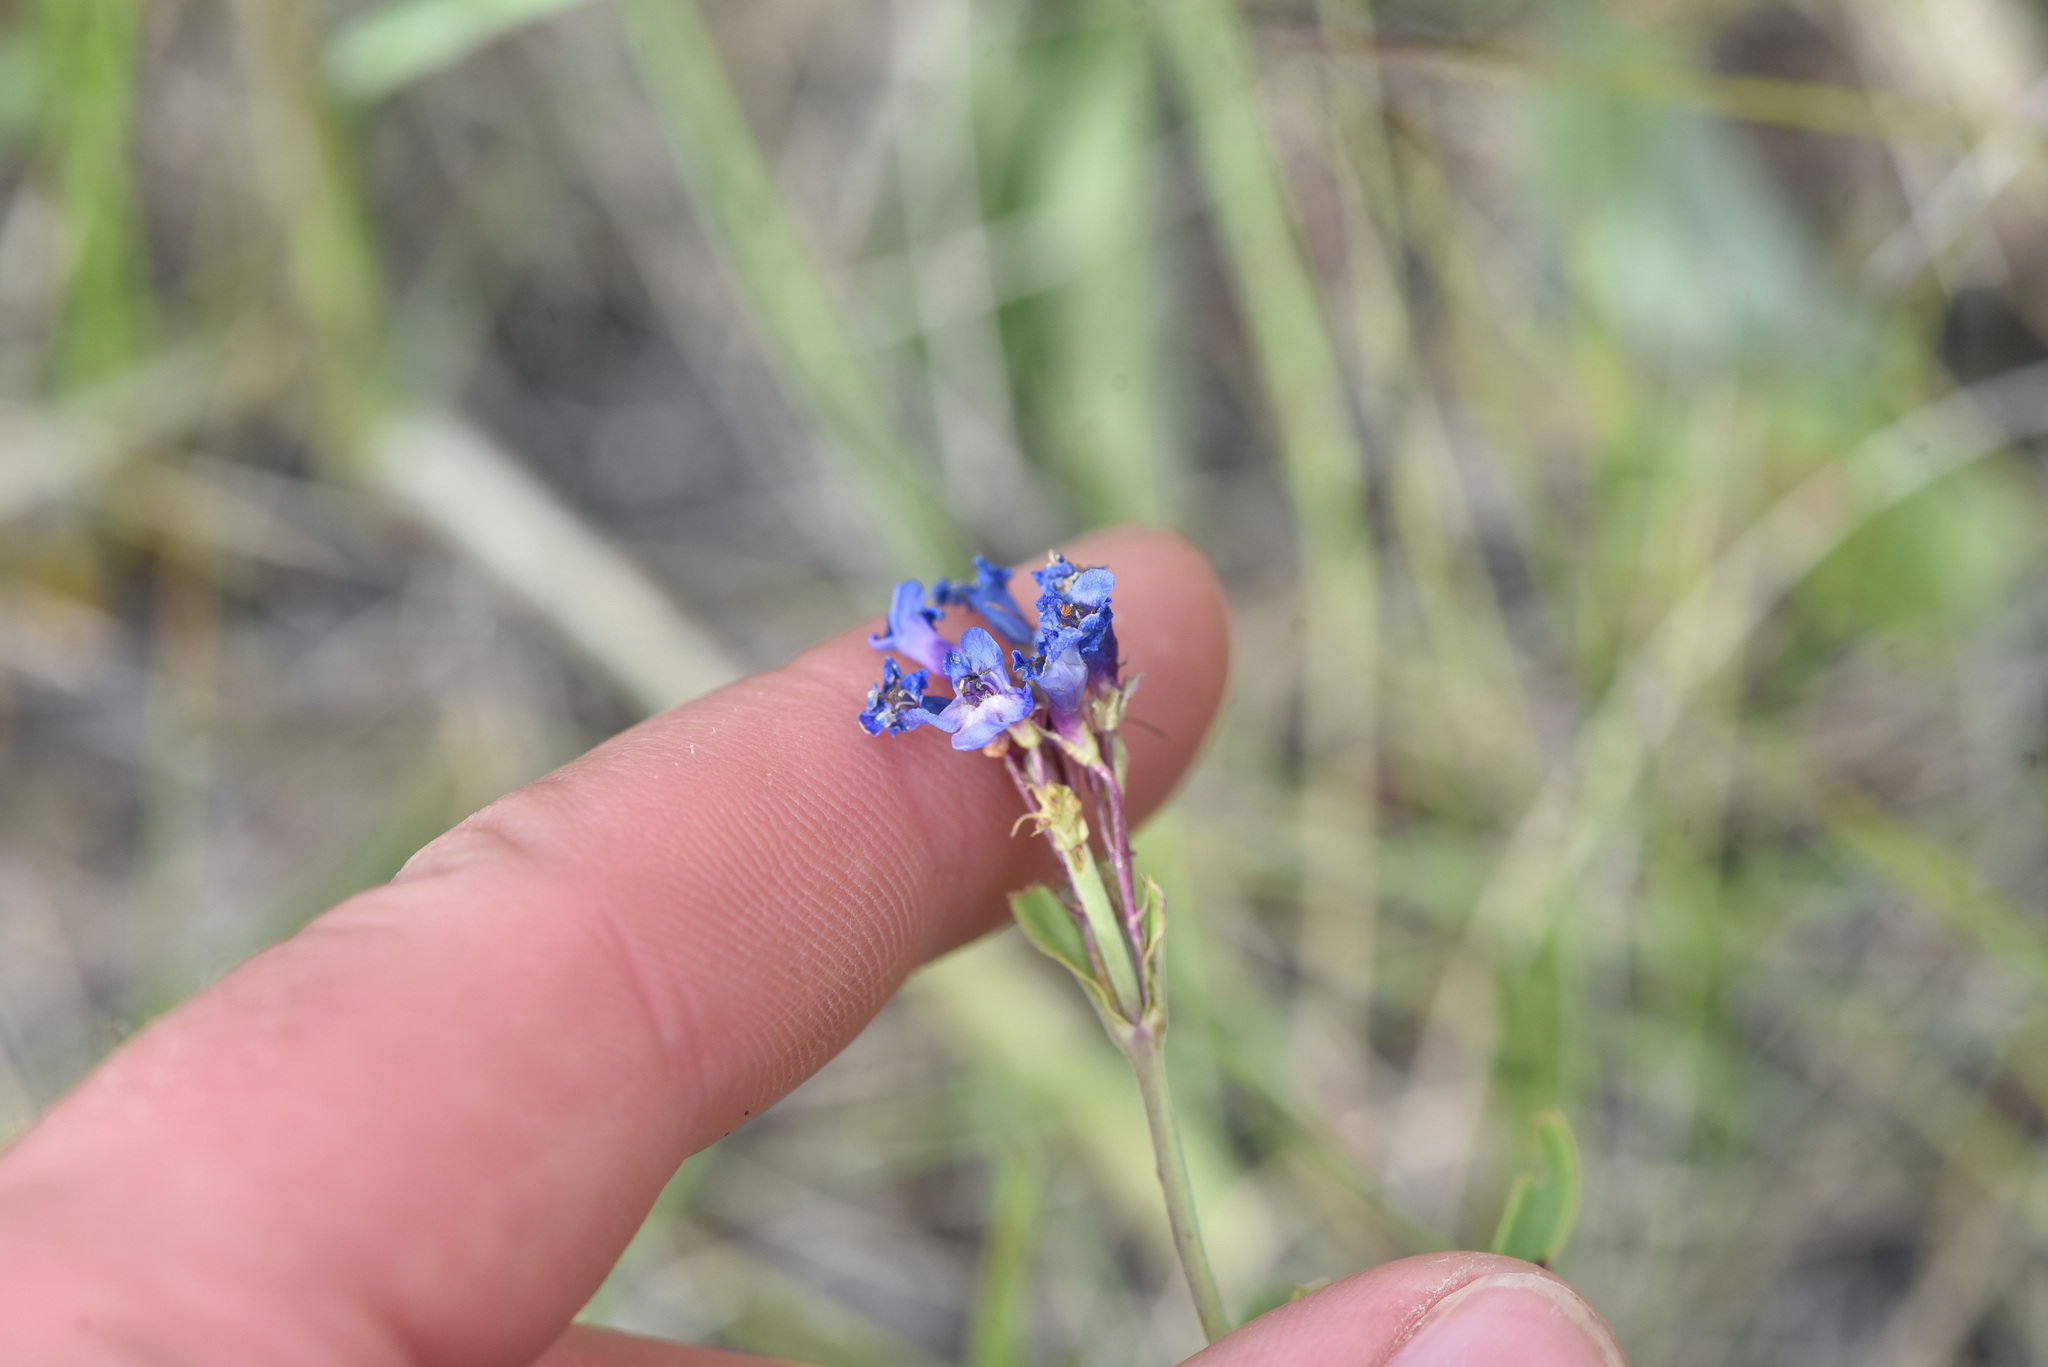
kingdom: Plantae
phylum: Tracheophyta
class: Magnoliopsida
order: Lamiales
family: Plantaginaceae
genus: Penstemon
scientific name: Penstemon procerus
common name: Small-flower penstemon
